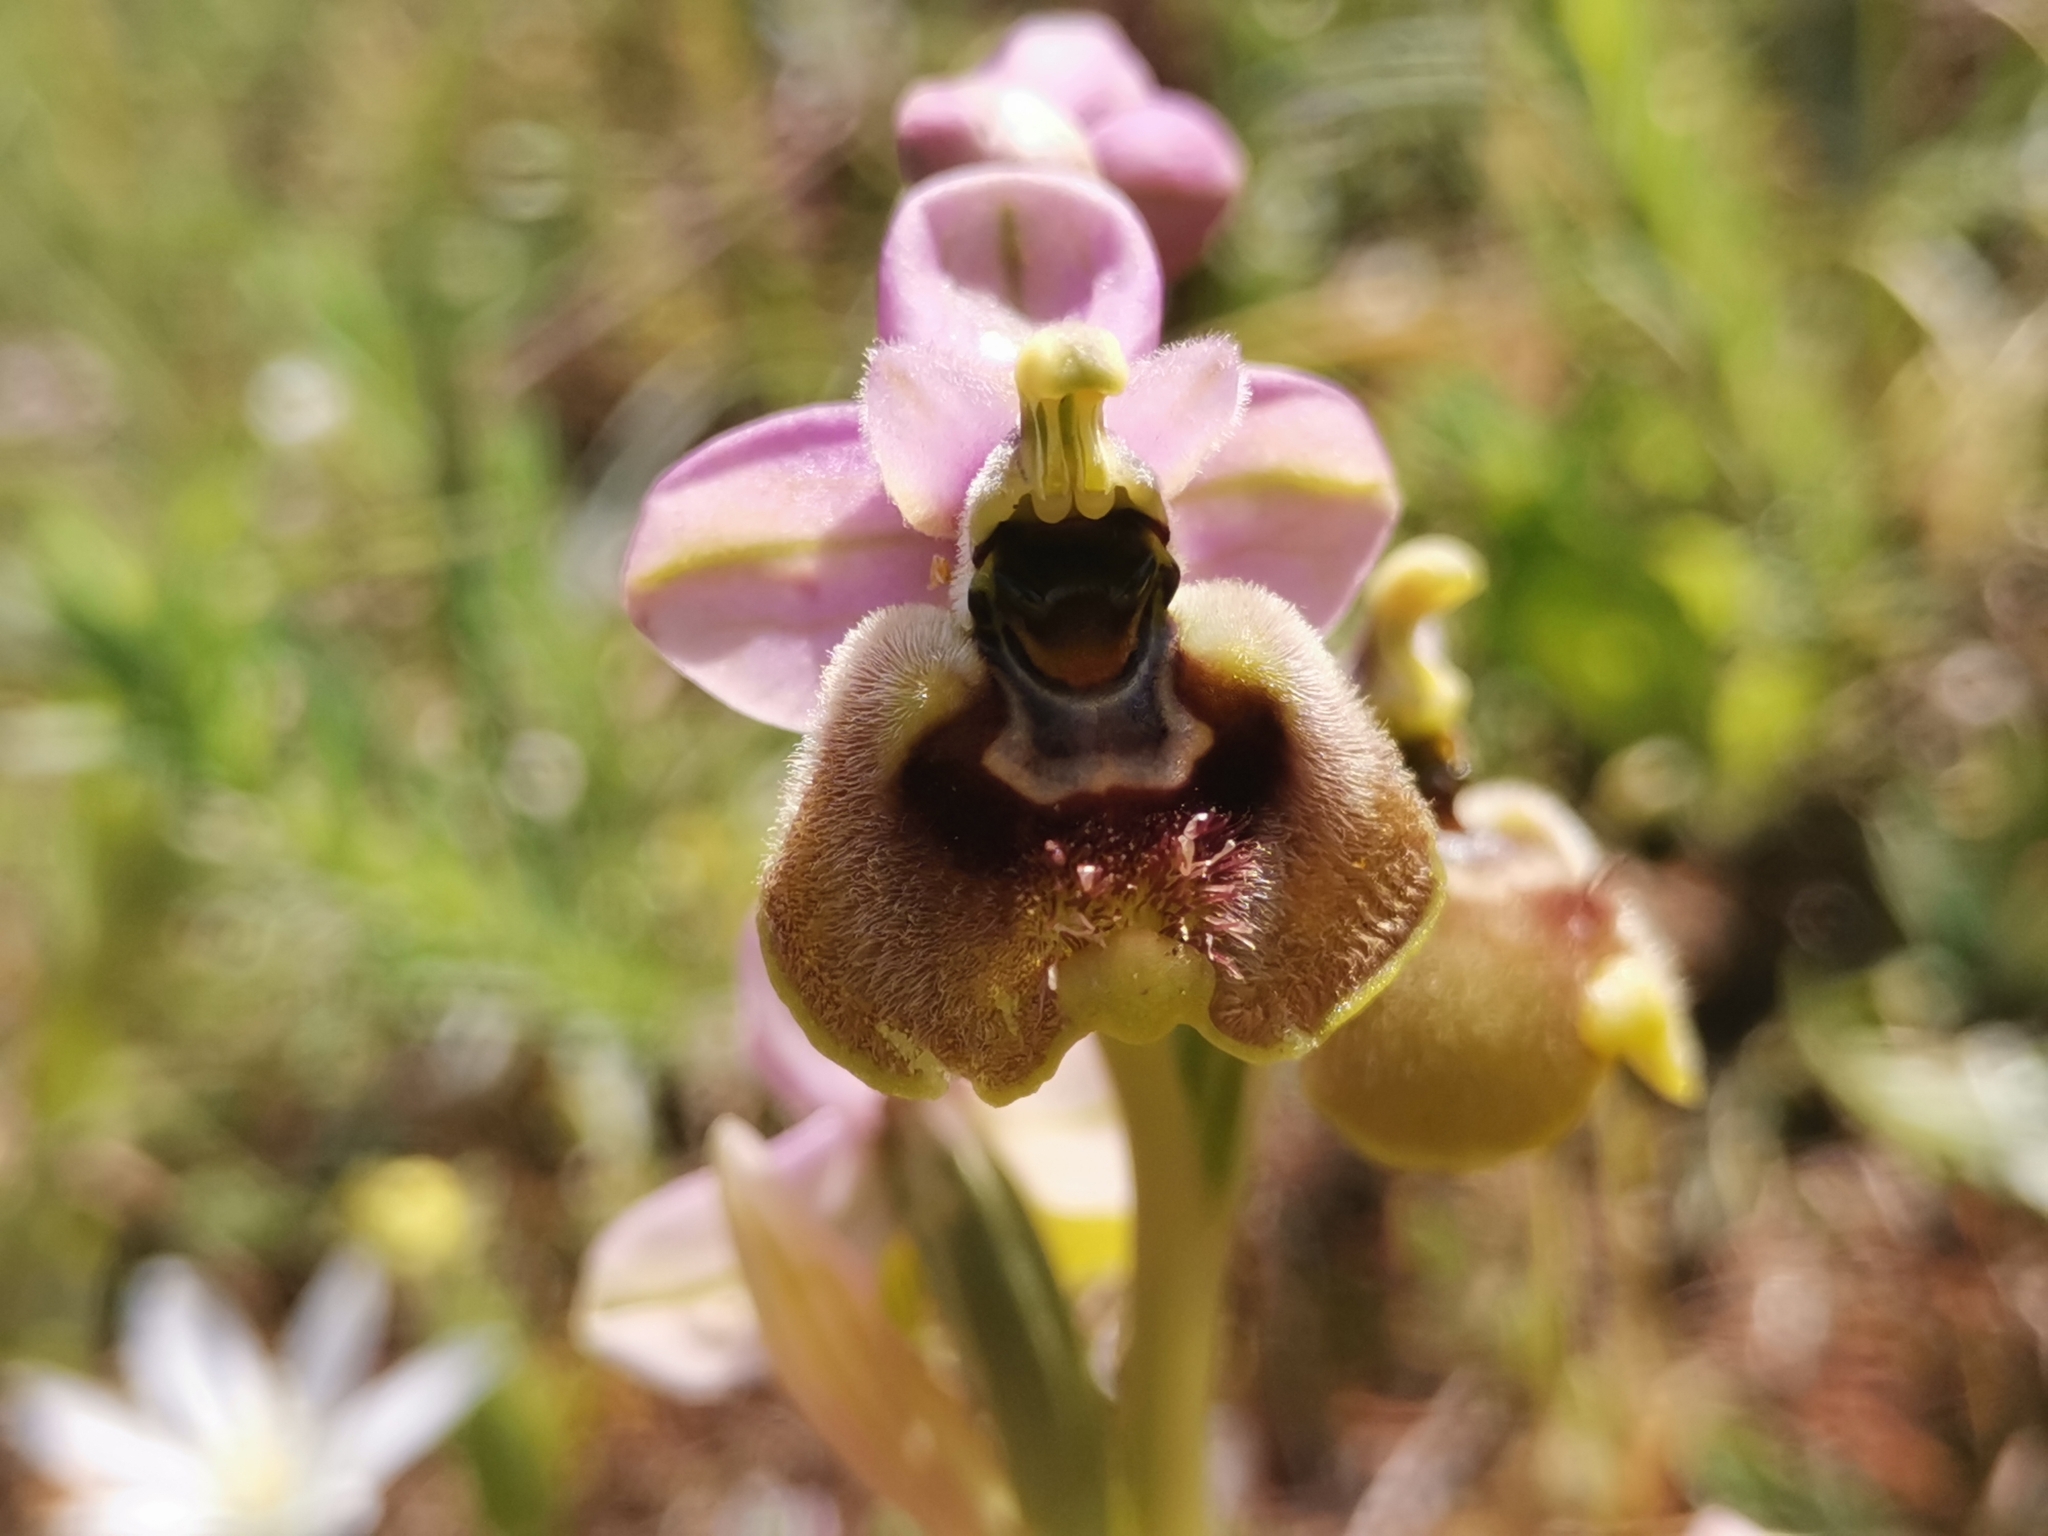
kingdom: Plantae
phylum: Tracheophyta
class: Liliopsida
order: Asparagales
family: Orchidaceae
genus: Ophrys
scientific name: Ophrys tenthredinifera
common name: Sawfly orchid
